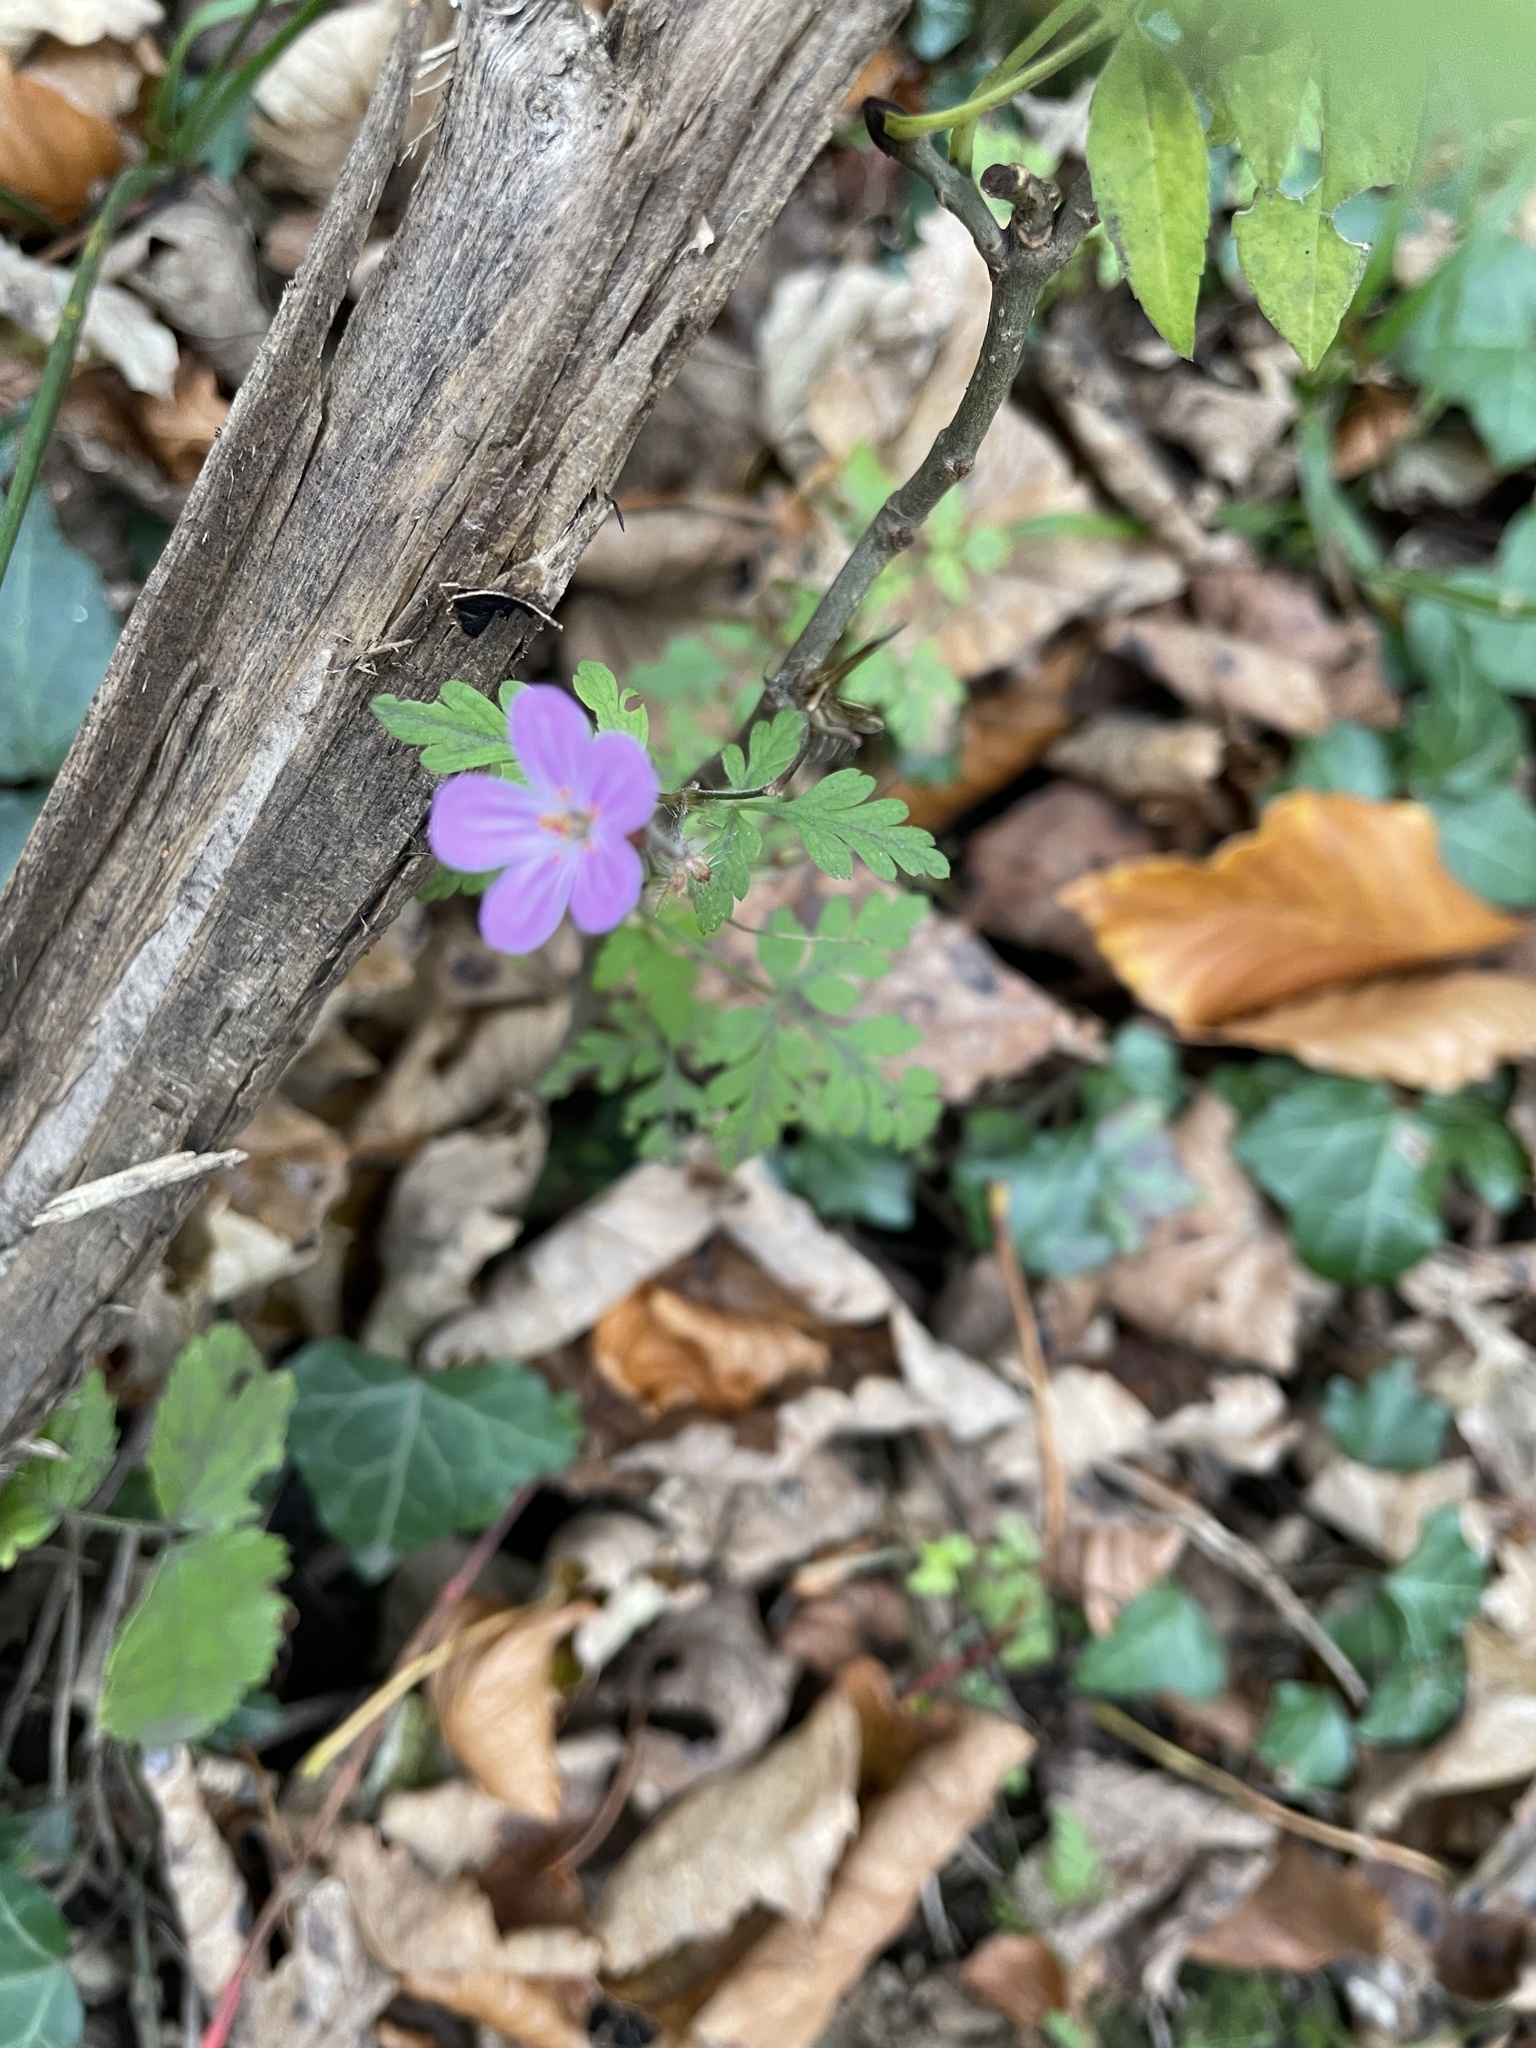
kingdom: Plantae
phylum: Tracheophyta
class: Magnoliopsida
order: Geraniales
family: Geraniaceae
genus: Geranium
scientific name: Geranium robertianum
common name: Herb-robert
